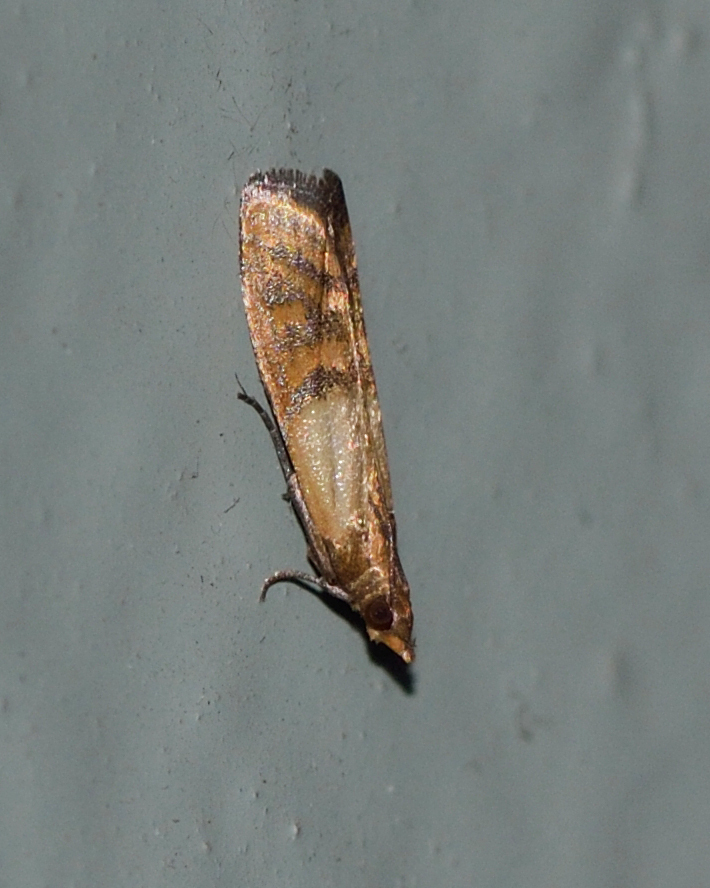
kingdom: Animalia
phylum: Arthropoda
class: Insecta
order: Lepidoptera
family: Pyralidae
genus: Plodia
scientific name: Plodia interpunctella
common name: Indian meal moth
